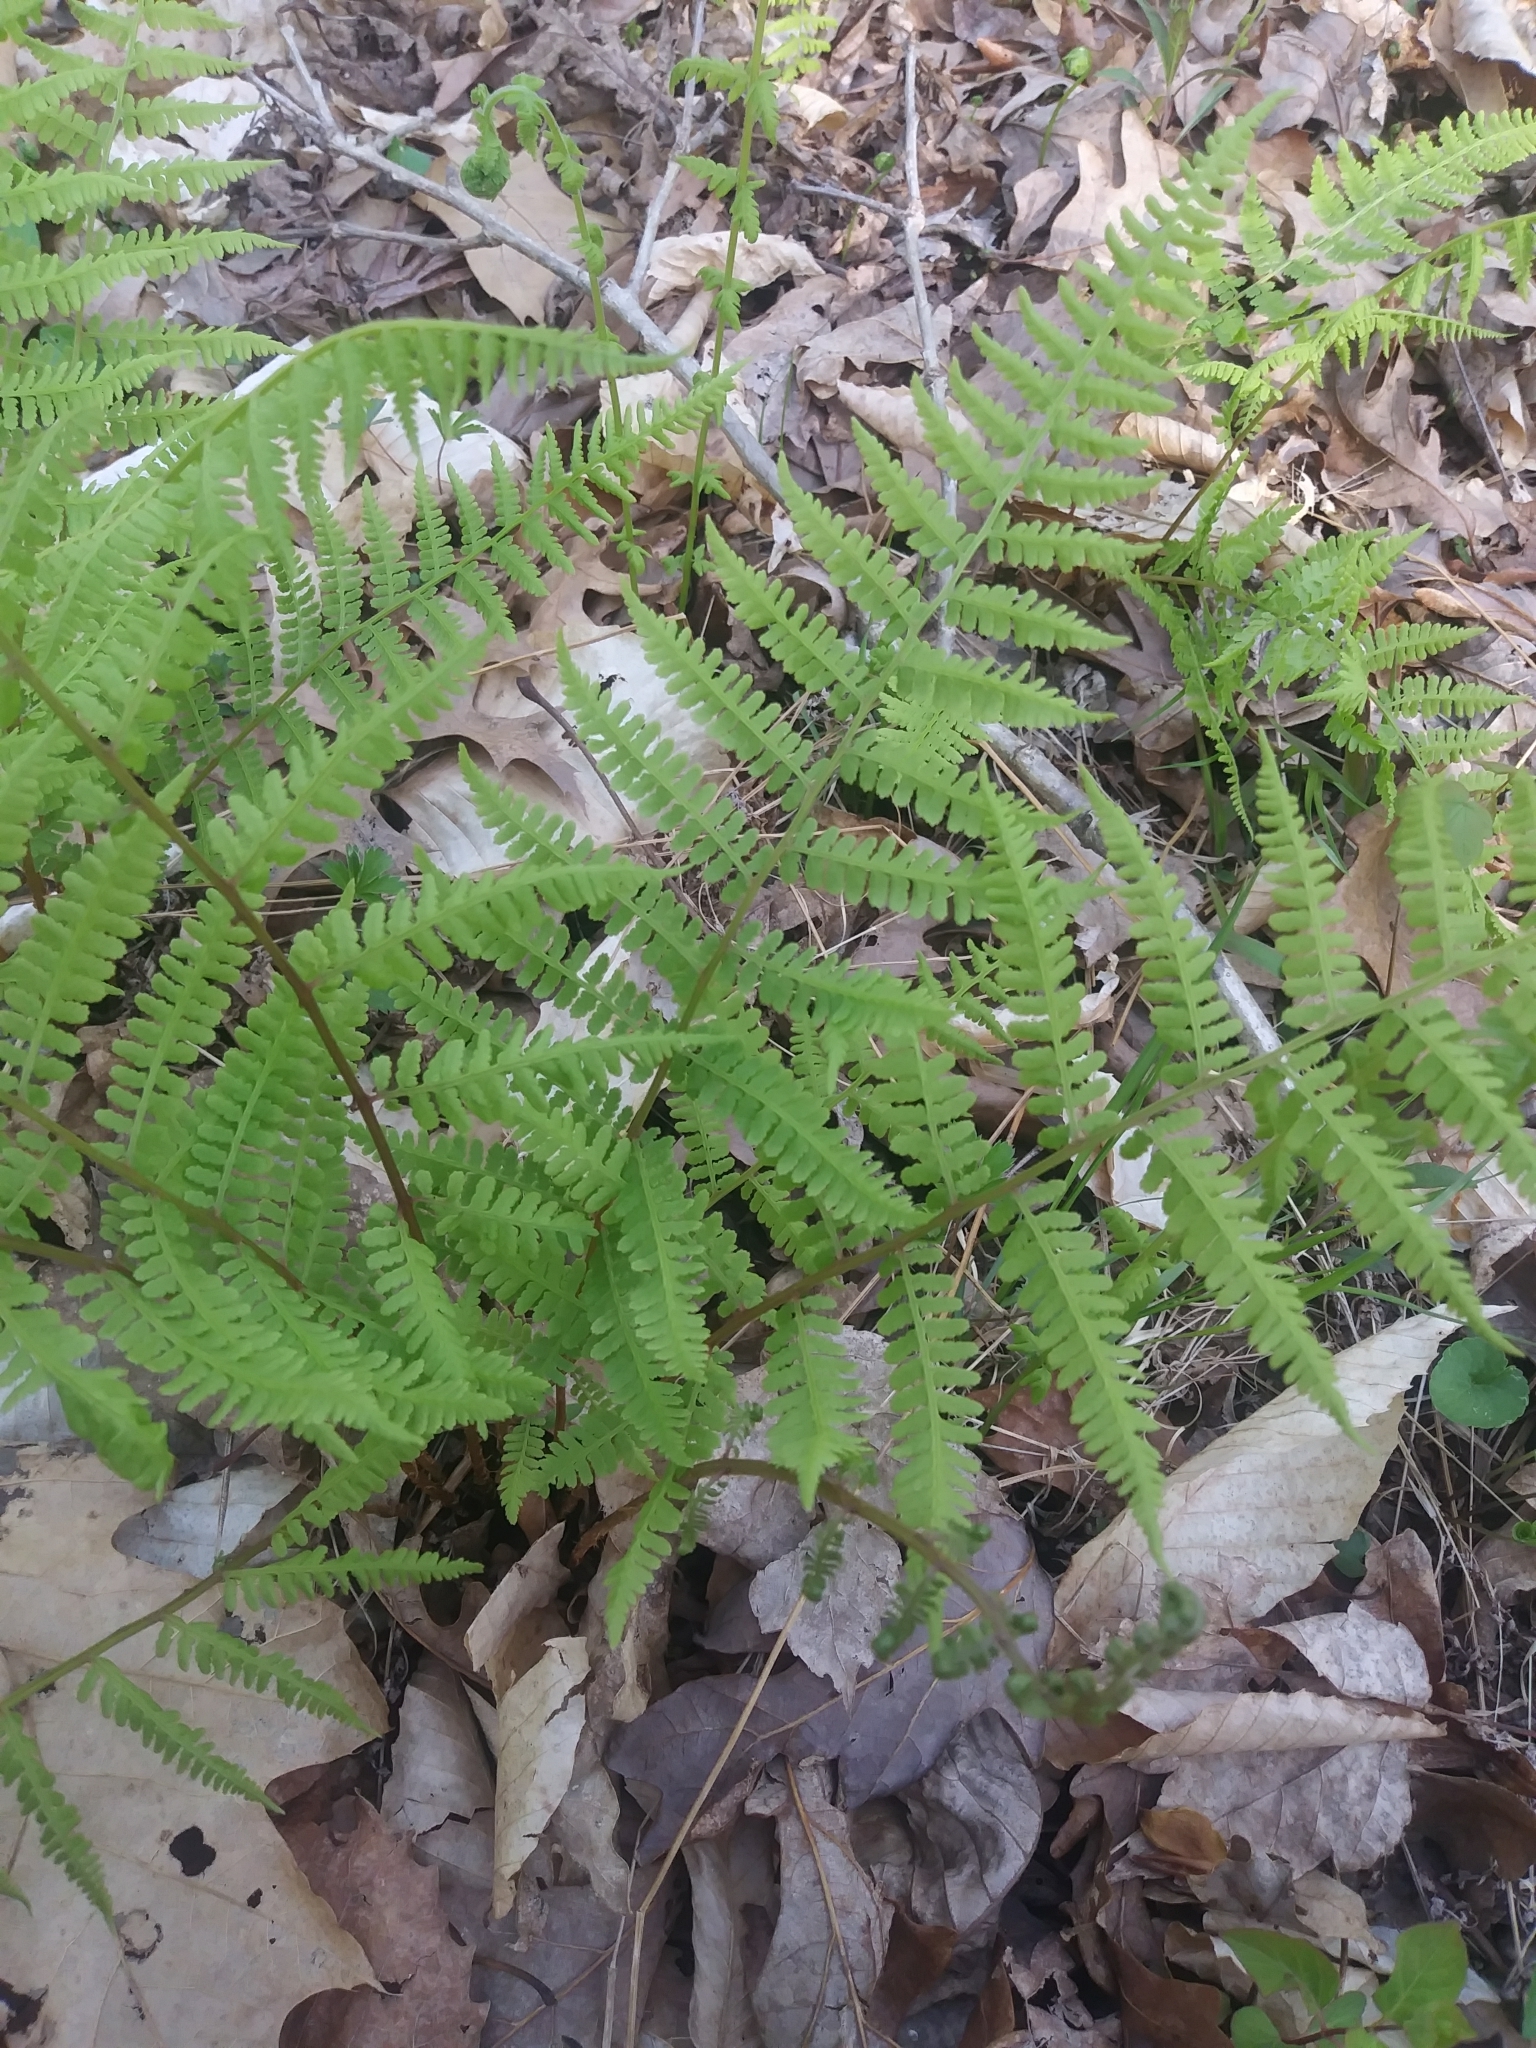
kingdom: Plantae
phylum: Tracheophyta
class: Polypodiopsida
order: Polypodiales
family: Athyriaceae
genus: Athyrium
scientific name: Athyrium asplenioides
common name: Southern lady fern
